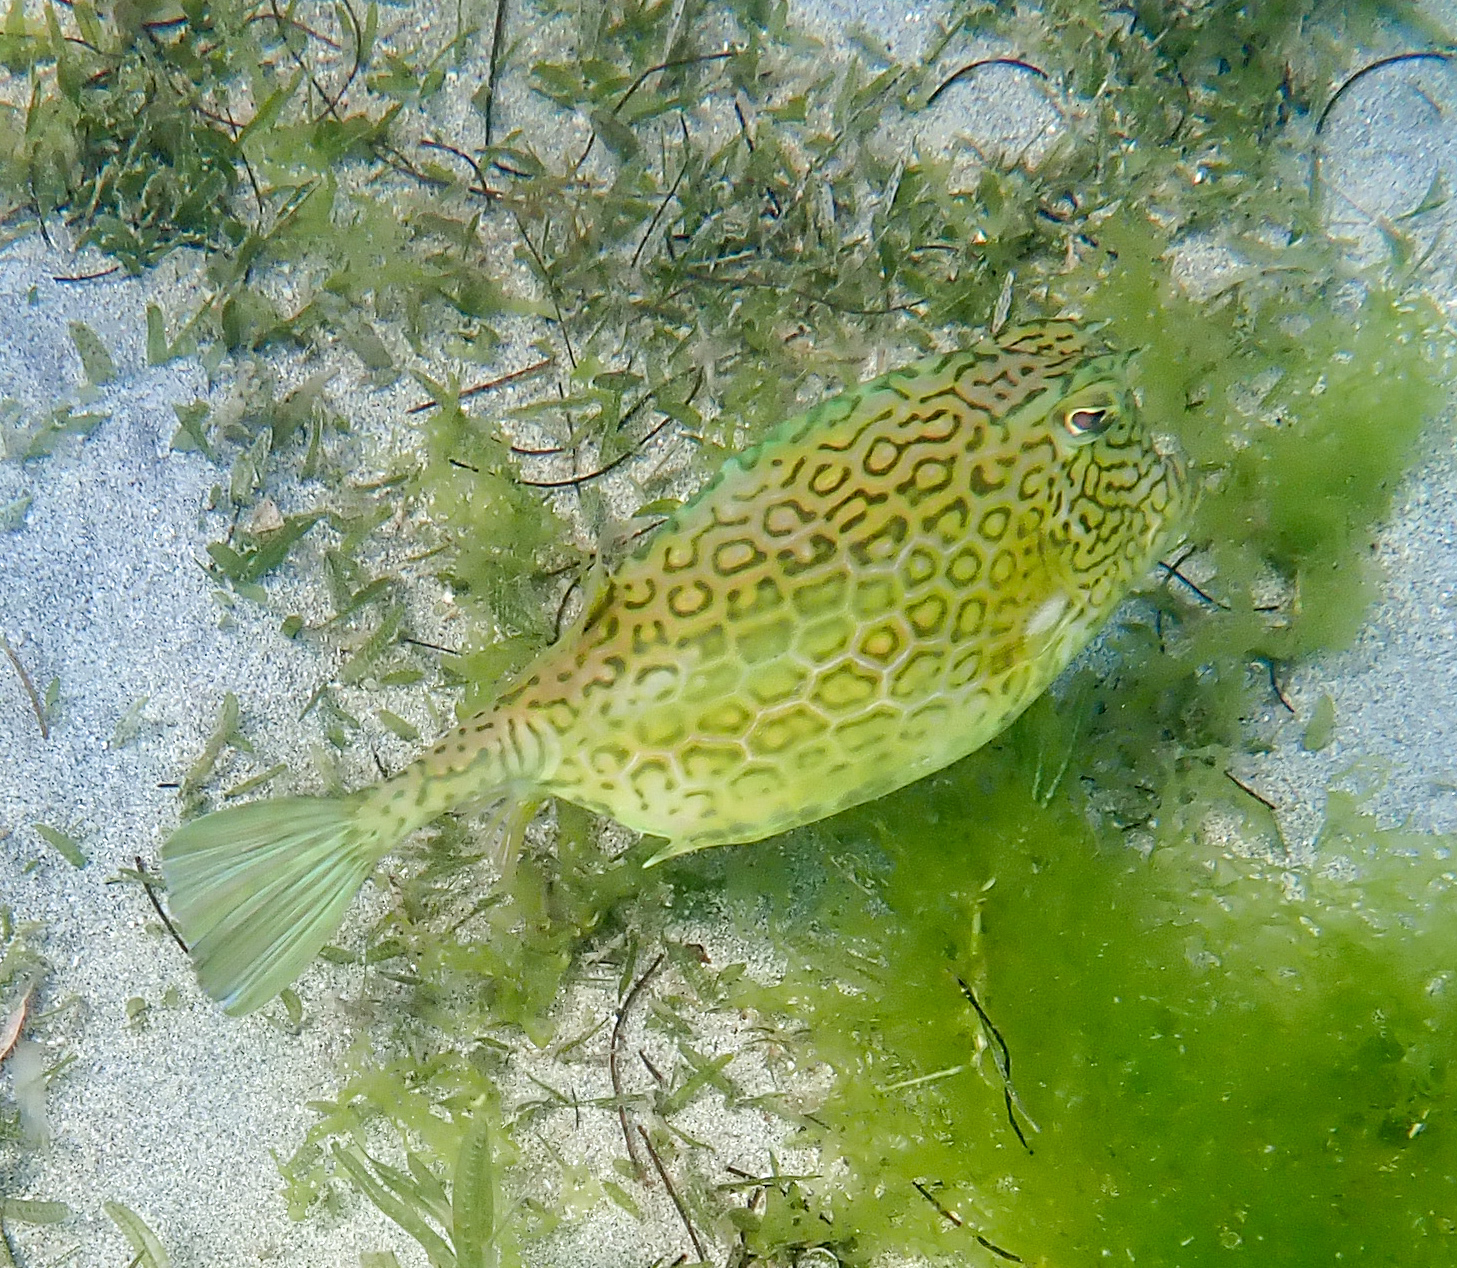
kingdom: Animalia
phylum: Chordata
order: Tetraodontiformes
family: Ostraciidae
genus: Acanthostracion
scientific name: Acanthostracion polygonius
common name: Honeycomb cowfish
